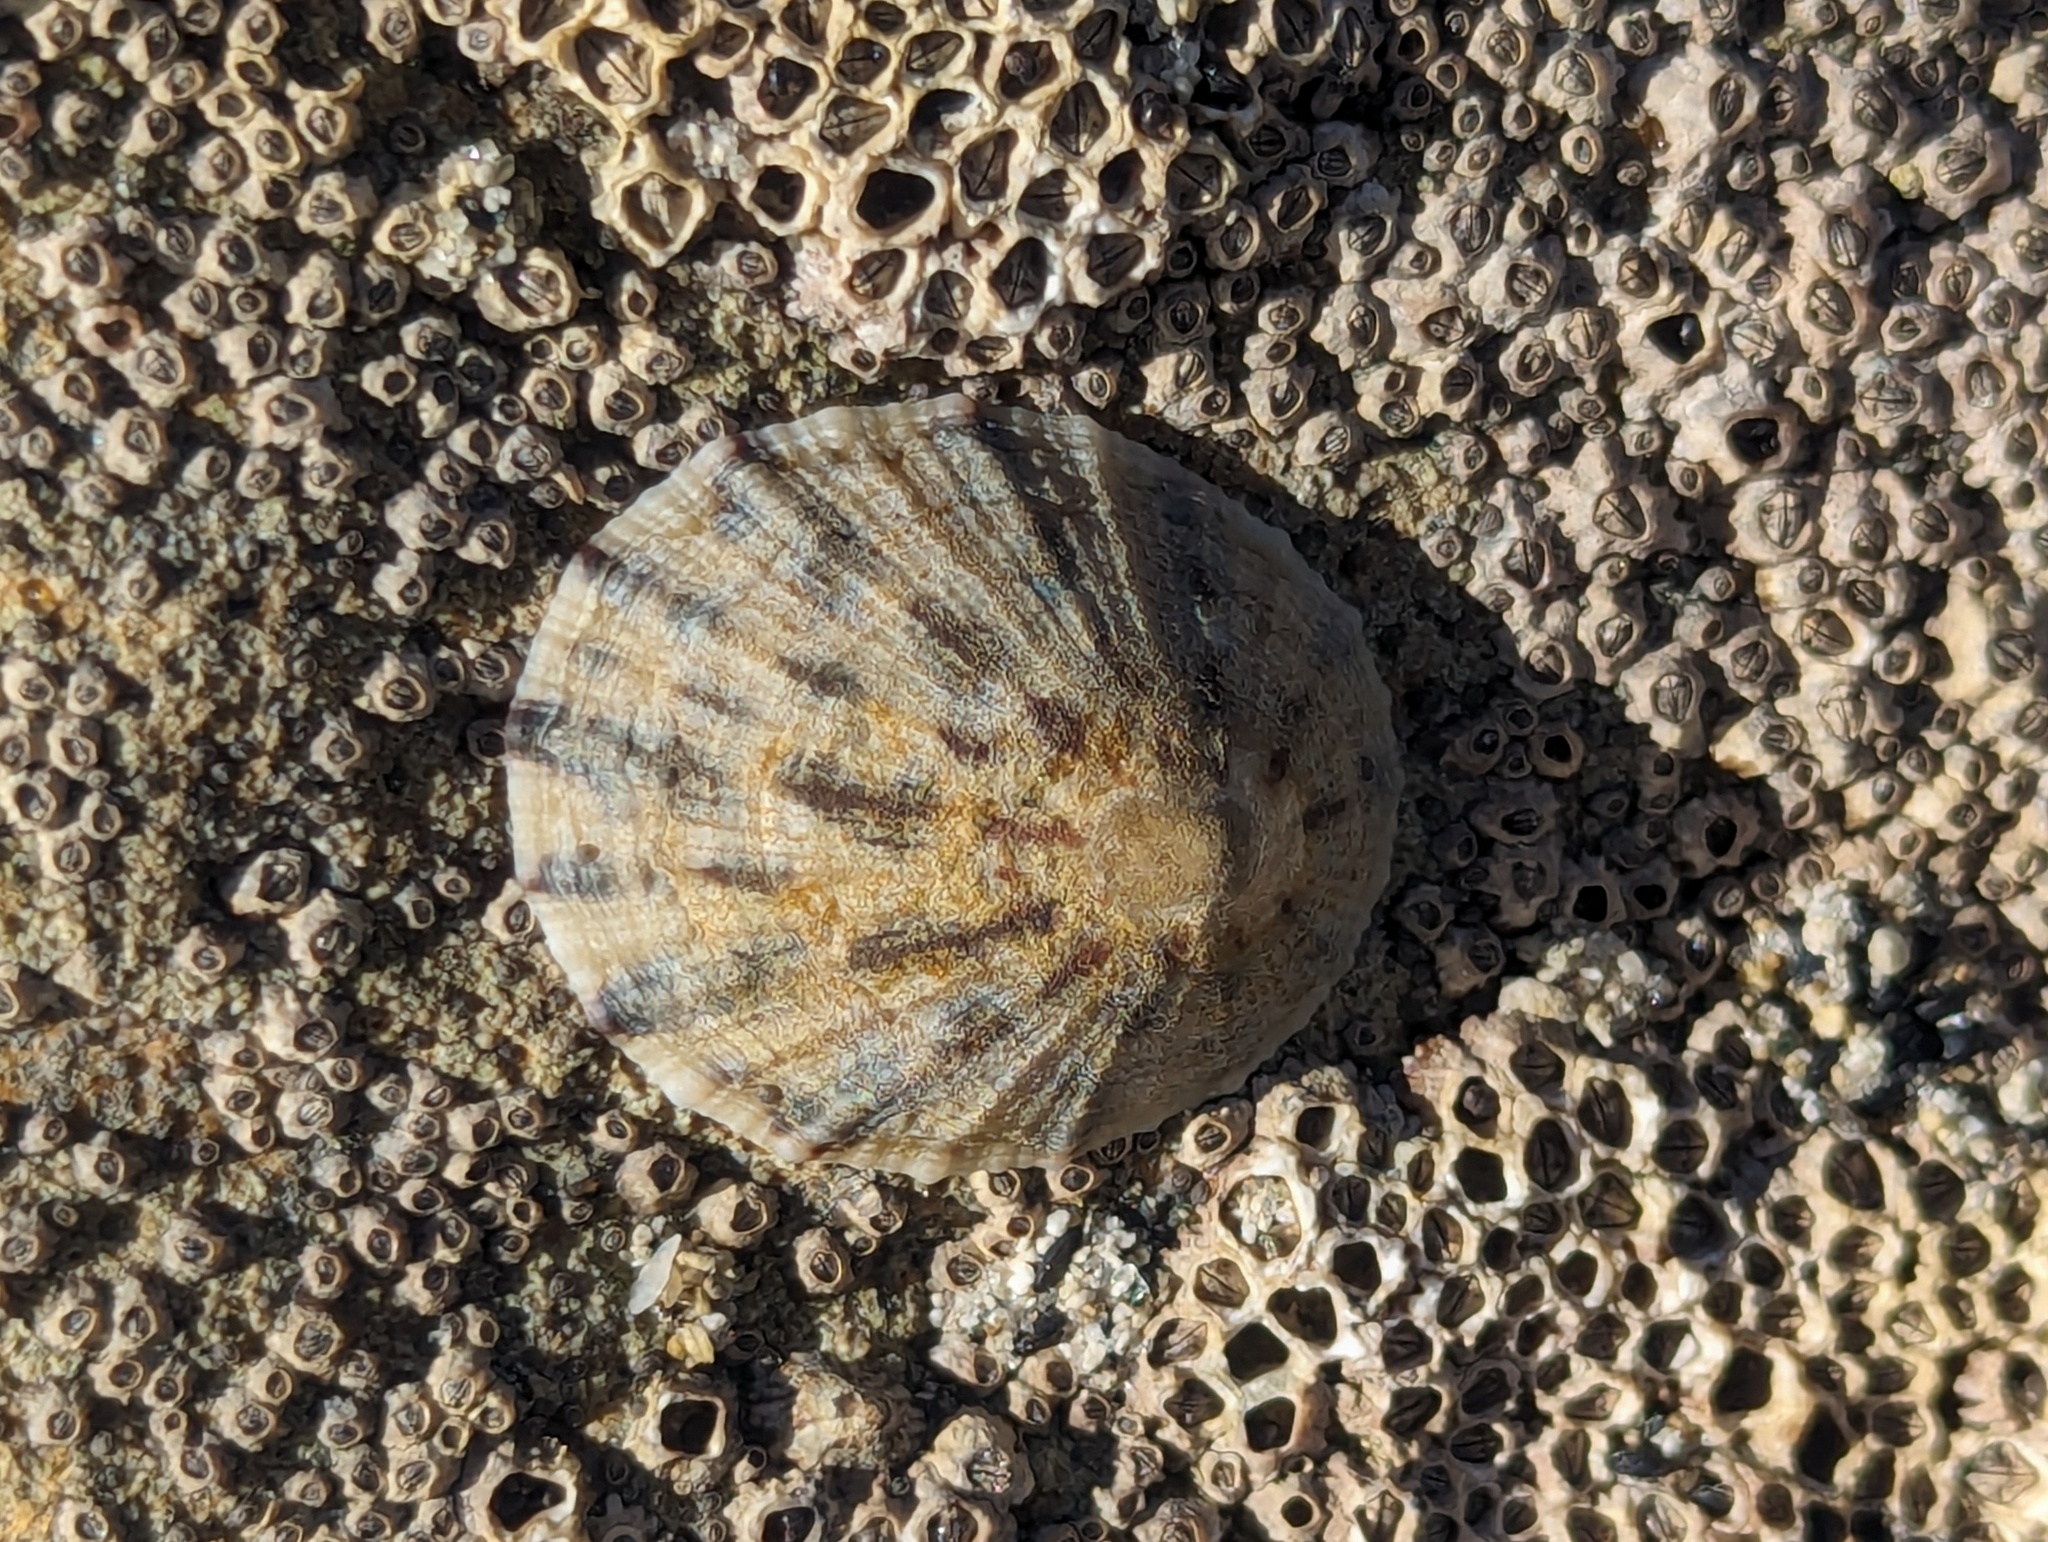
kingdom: Animalia
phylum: Mollusca
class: Gastropoda
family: Nacellidae
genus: Cellana
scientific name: Cellana radians
